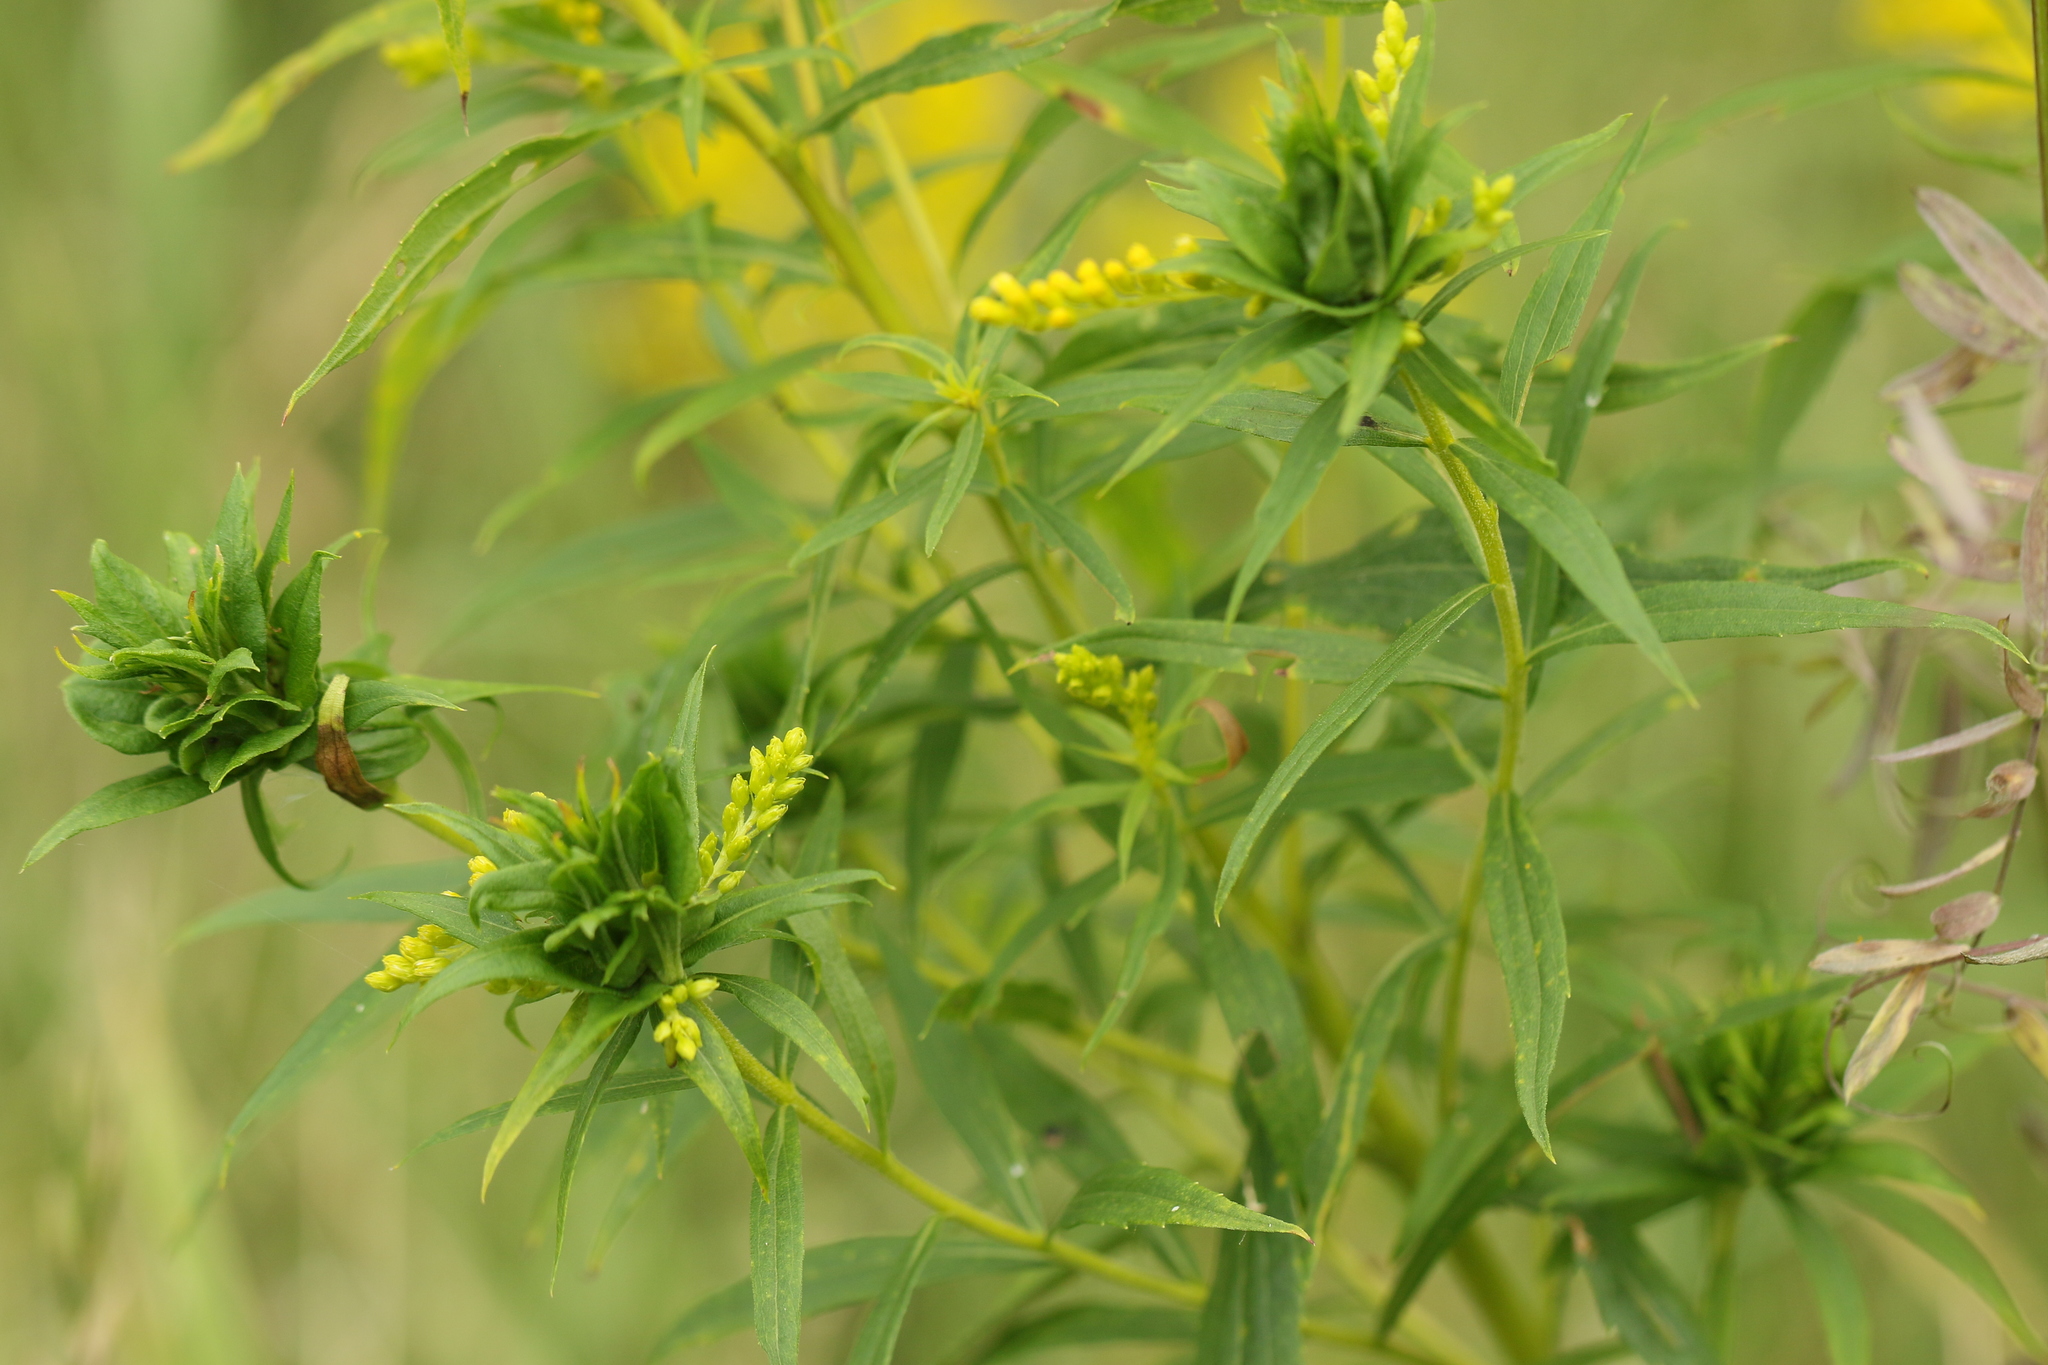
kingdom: Animalia
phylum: Arthropoda
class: Insecta
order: Diptera
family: Cecidomyiidae
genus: Rhopalomyia
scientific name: Rhopalomyia solidaginis
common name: Goldenrod bunch gall midge
